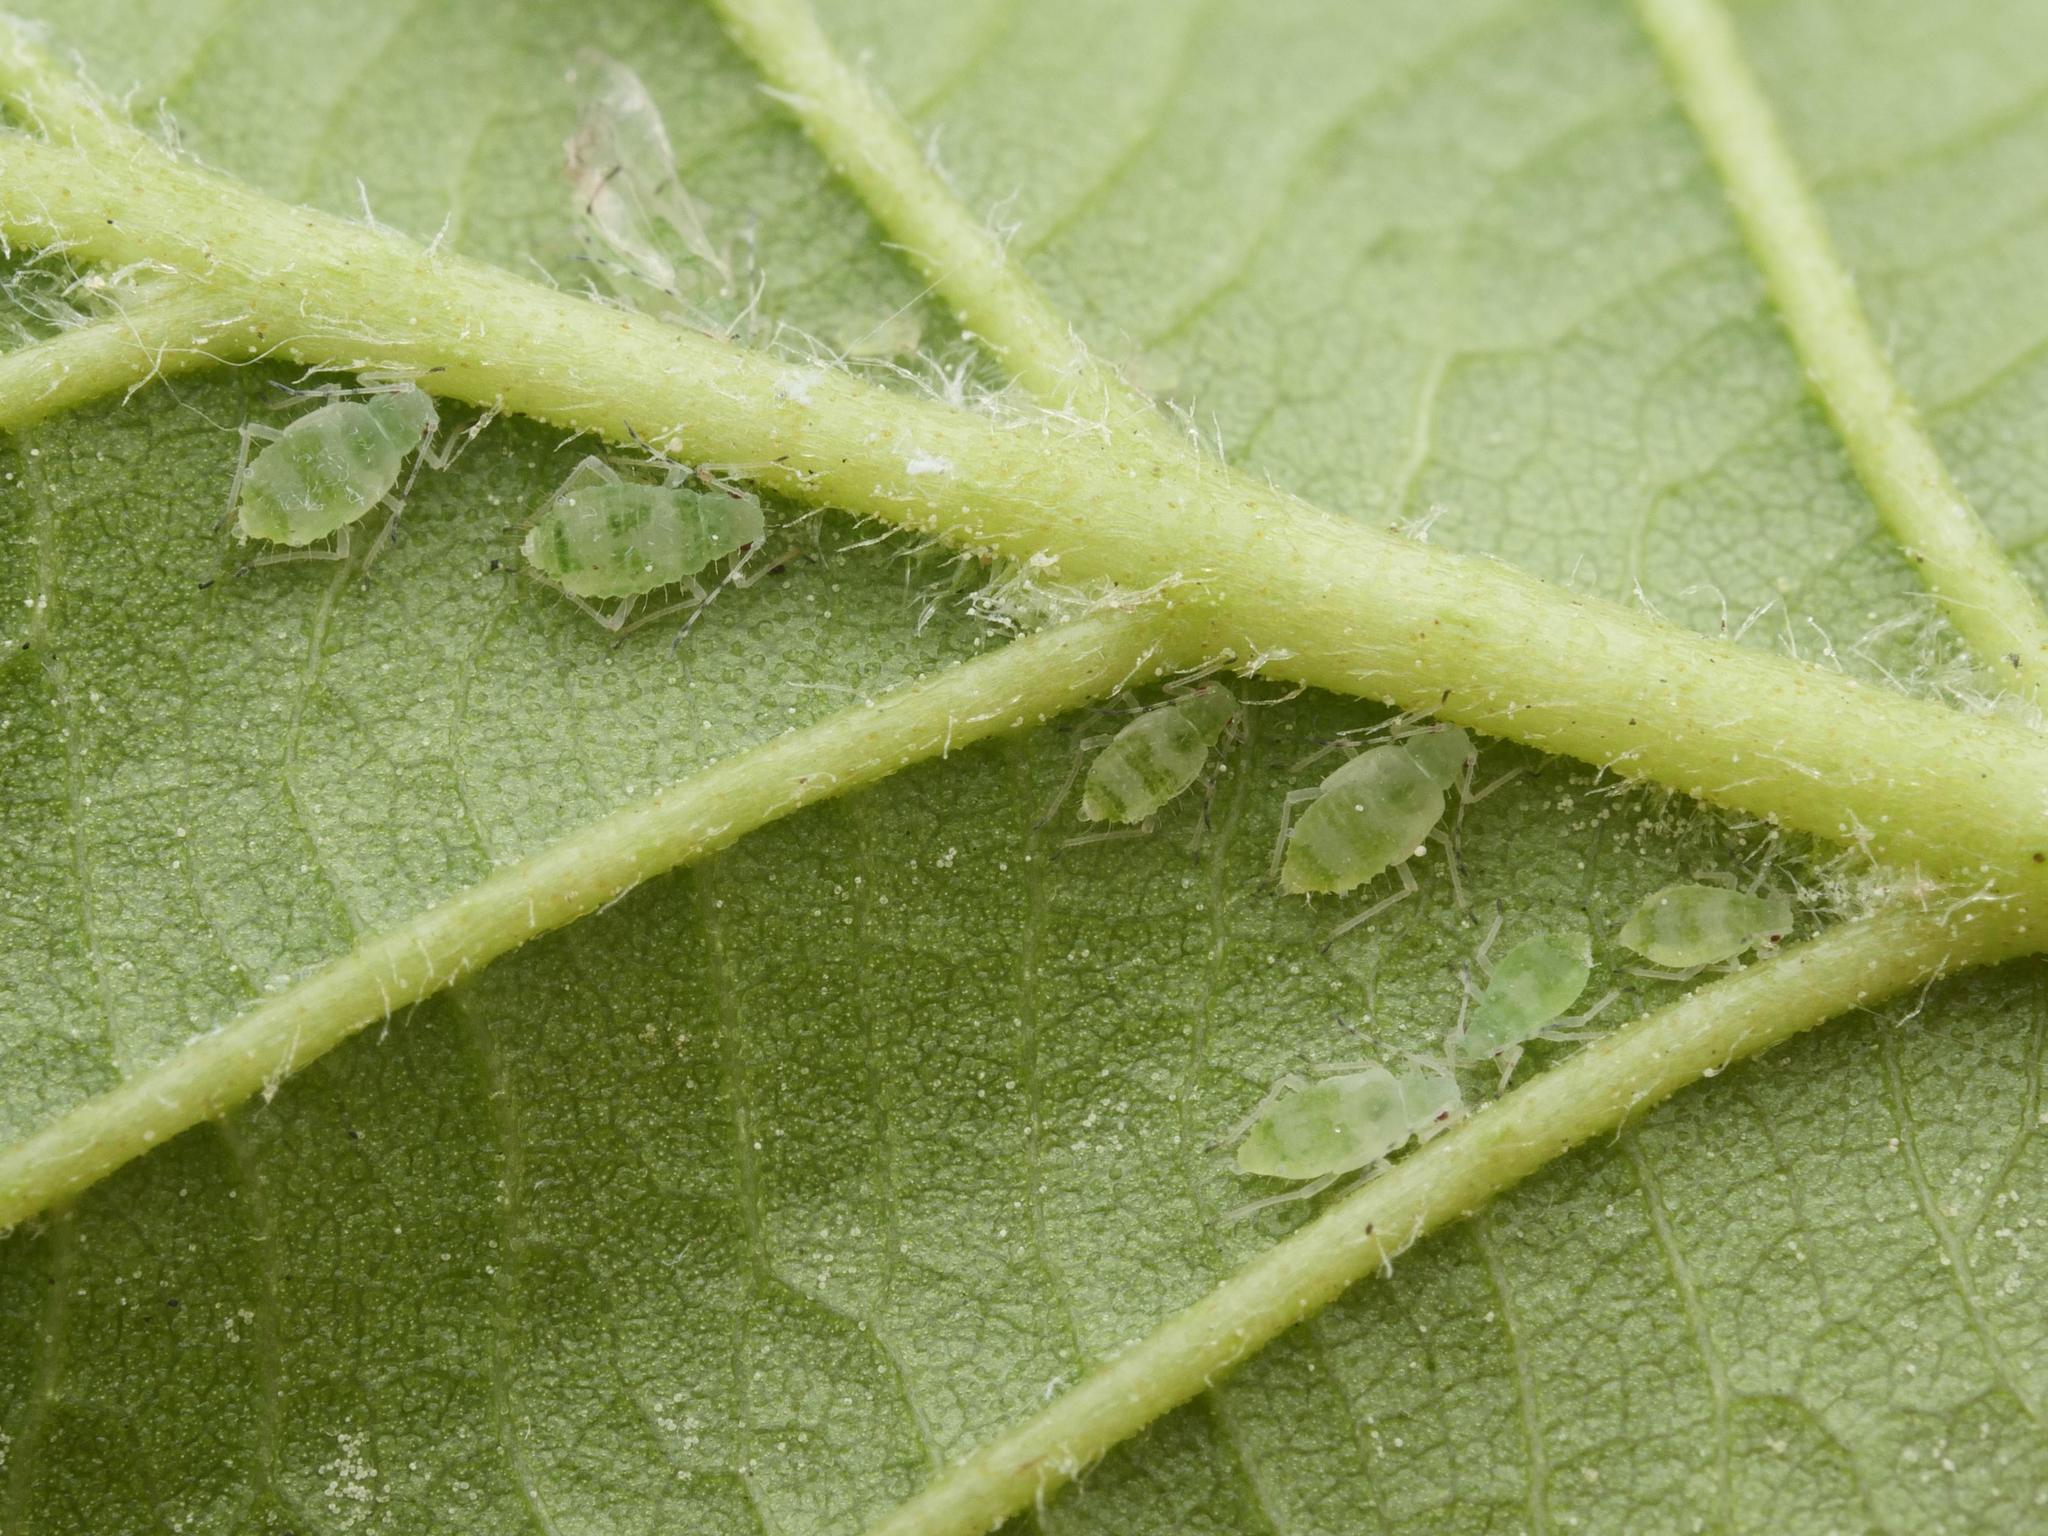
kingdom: Animalia
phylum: Arthropoda
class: Insecta
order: Hemiptera
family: Aphididae
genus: Pterocallis
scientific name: Pterocallis maculata
